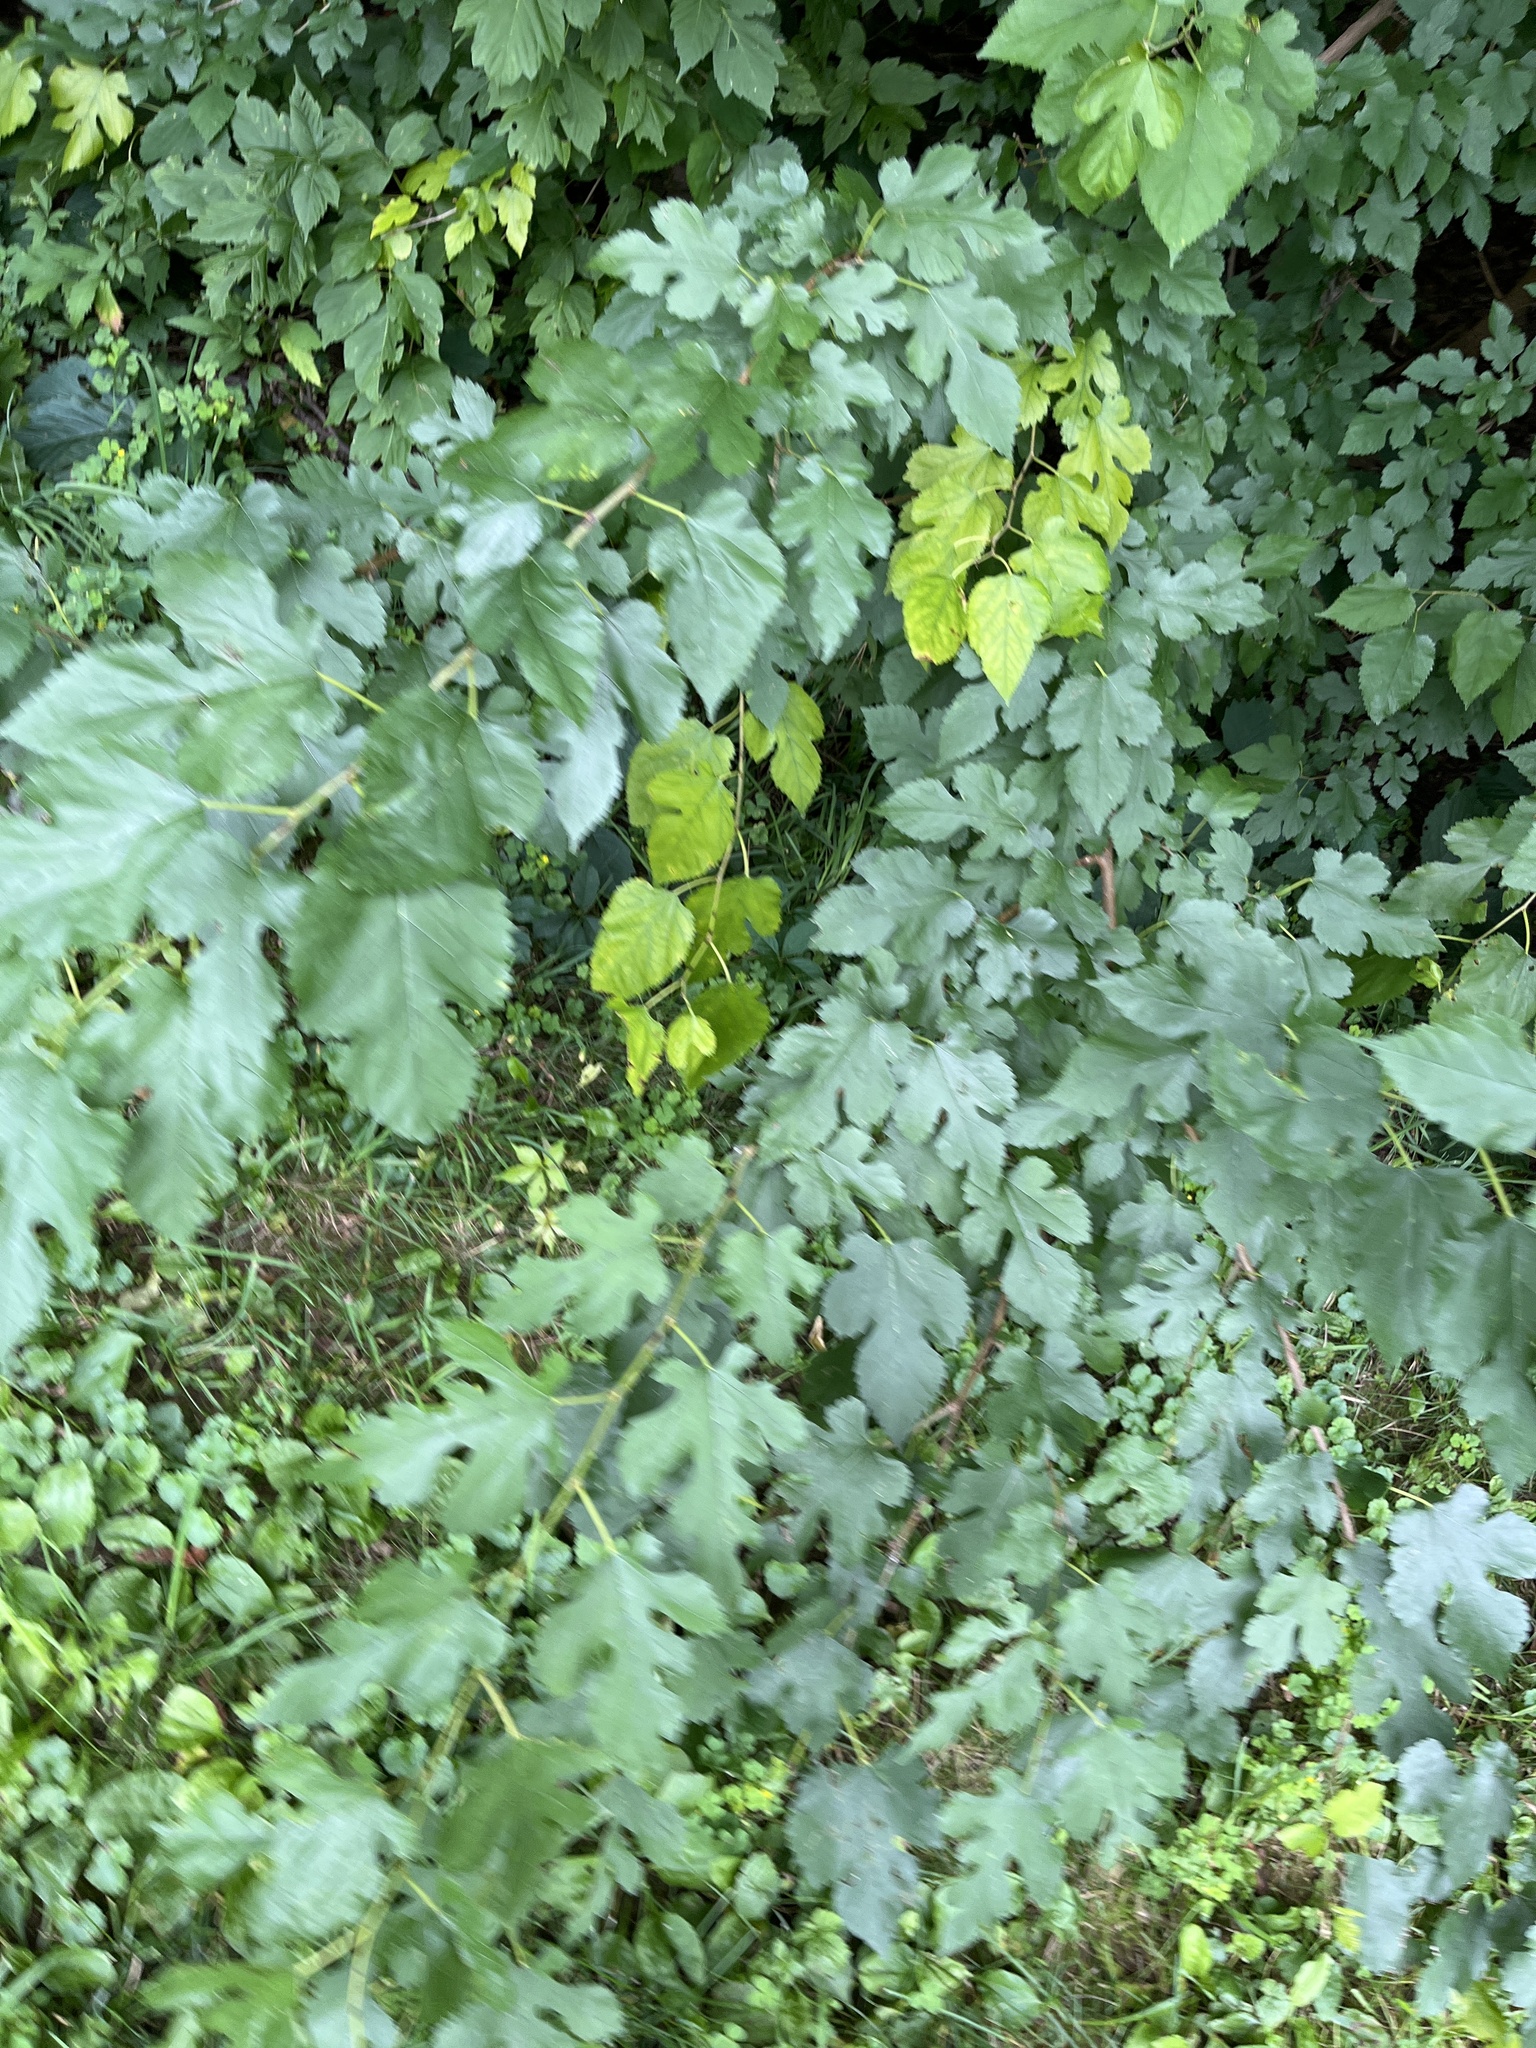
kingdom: Plantae
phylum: Tracheophyta
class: Magnoliopsida
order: Rosales
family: Moraceae
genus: Morus
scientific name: Morus alba
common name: White mulberry
